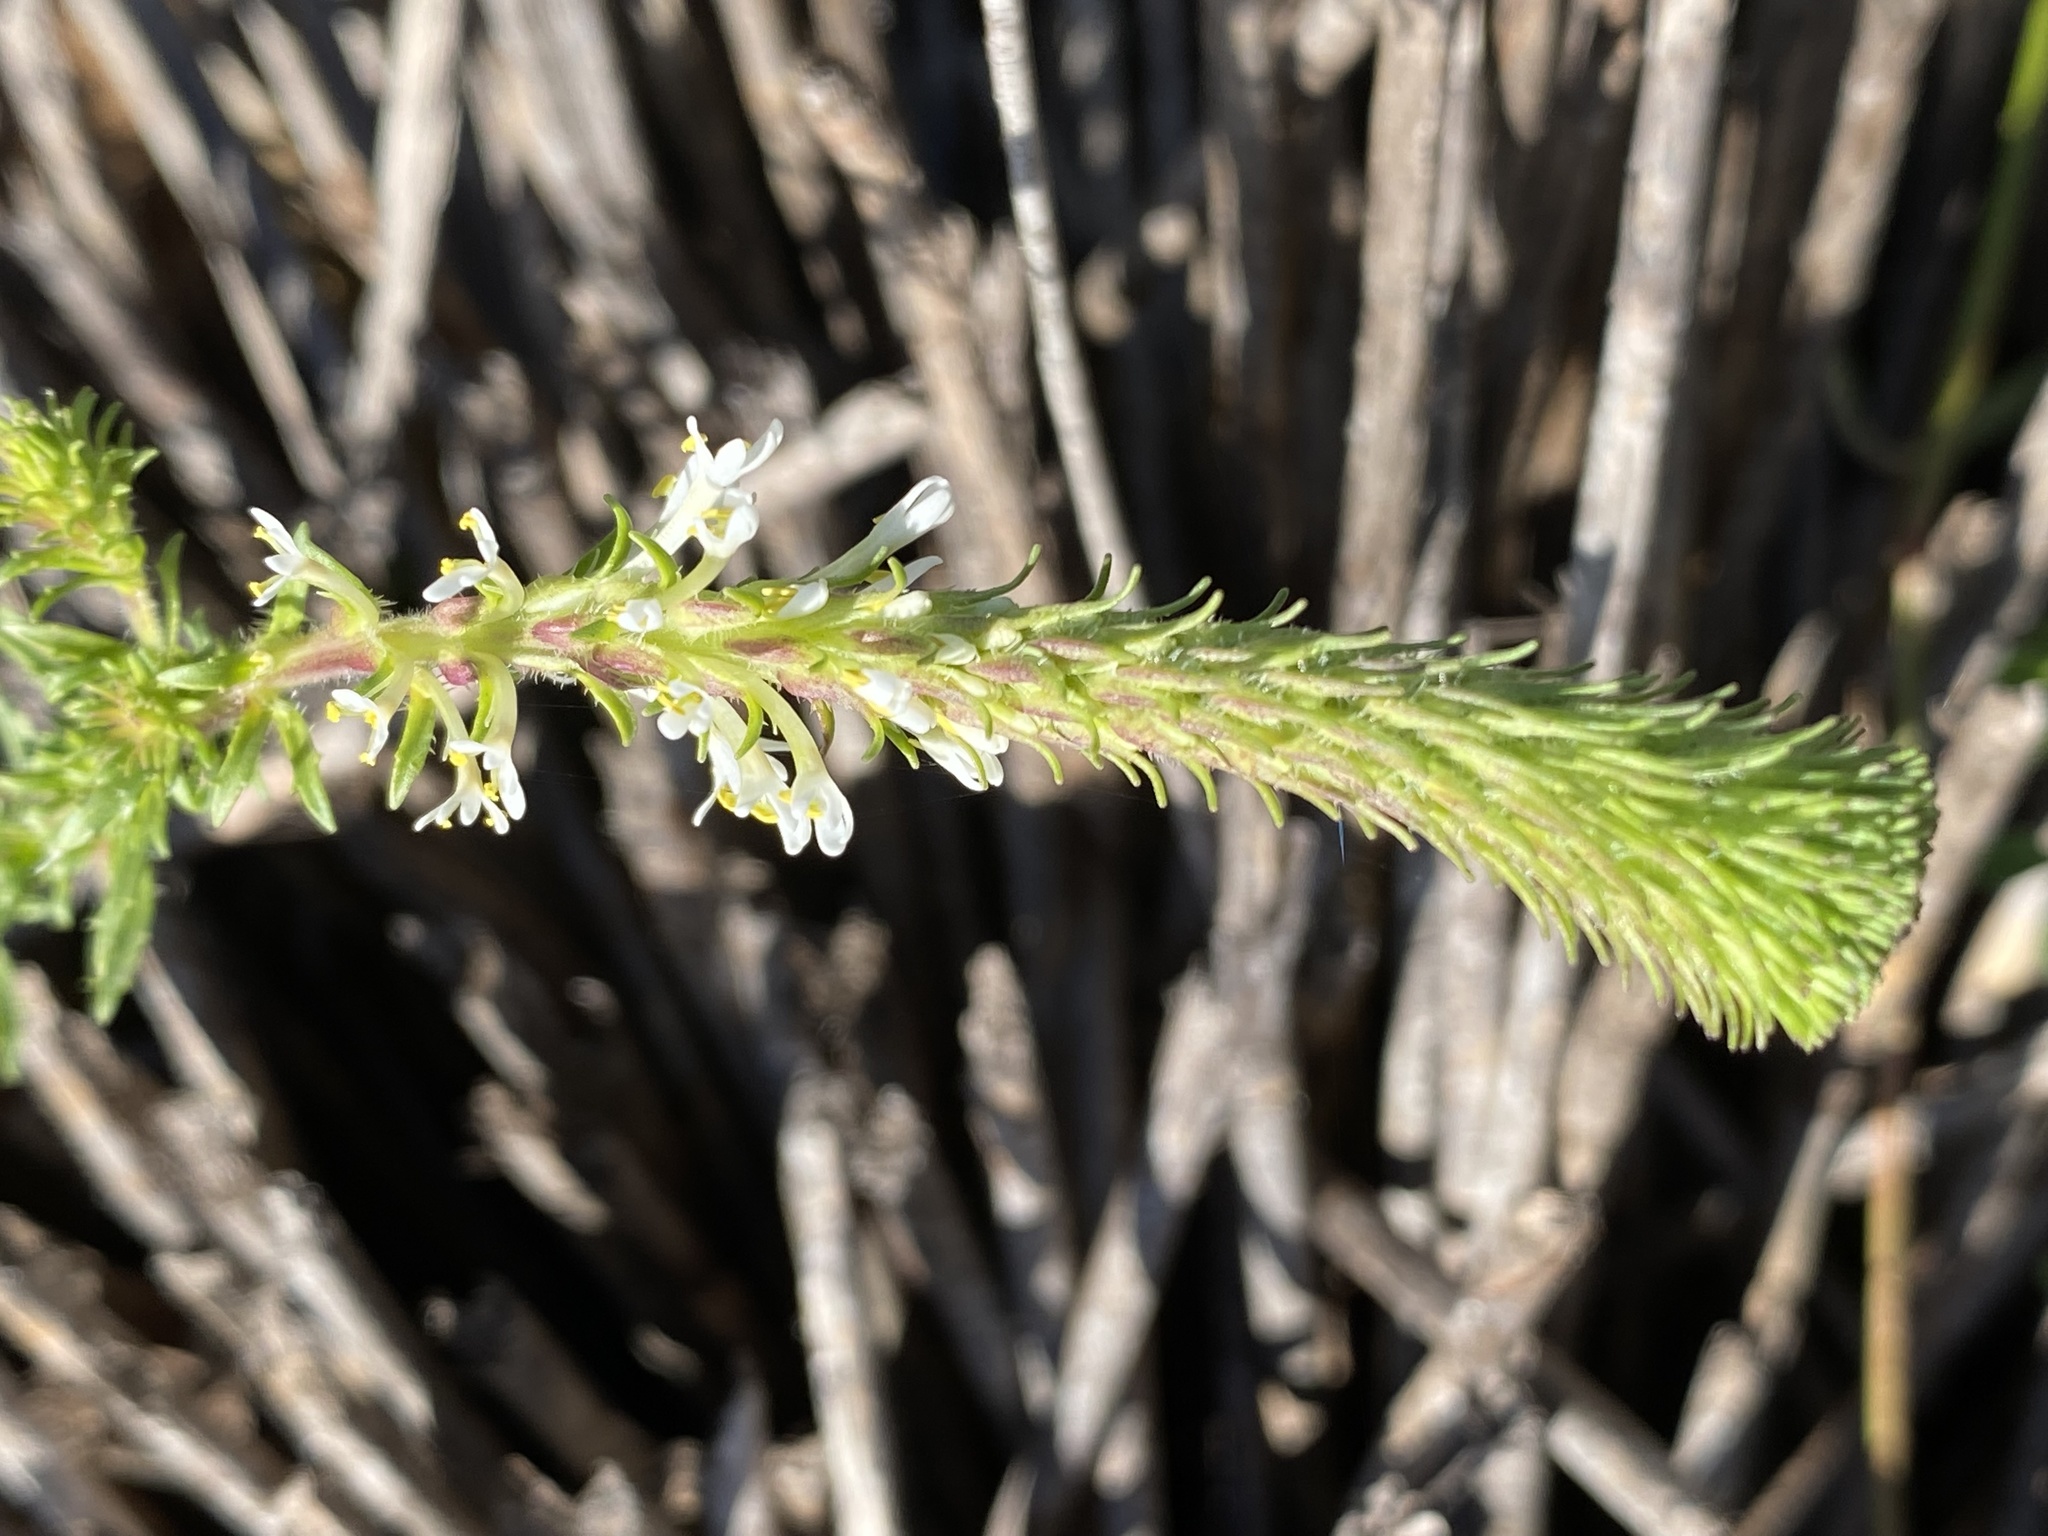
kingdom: Plantae
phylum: Tracheophyta
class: Magnoliopsida
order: Lamiales
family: Scrophulariaceae
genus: Dischisma
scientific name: Dischisma ciliatum
